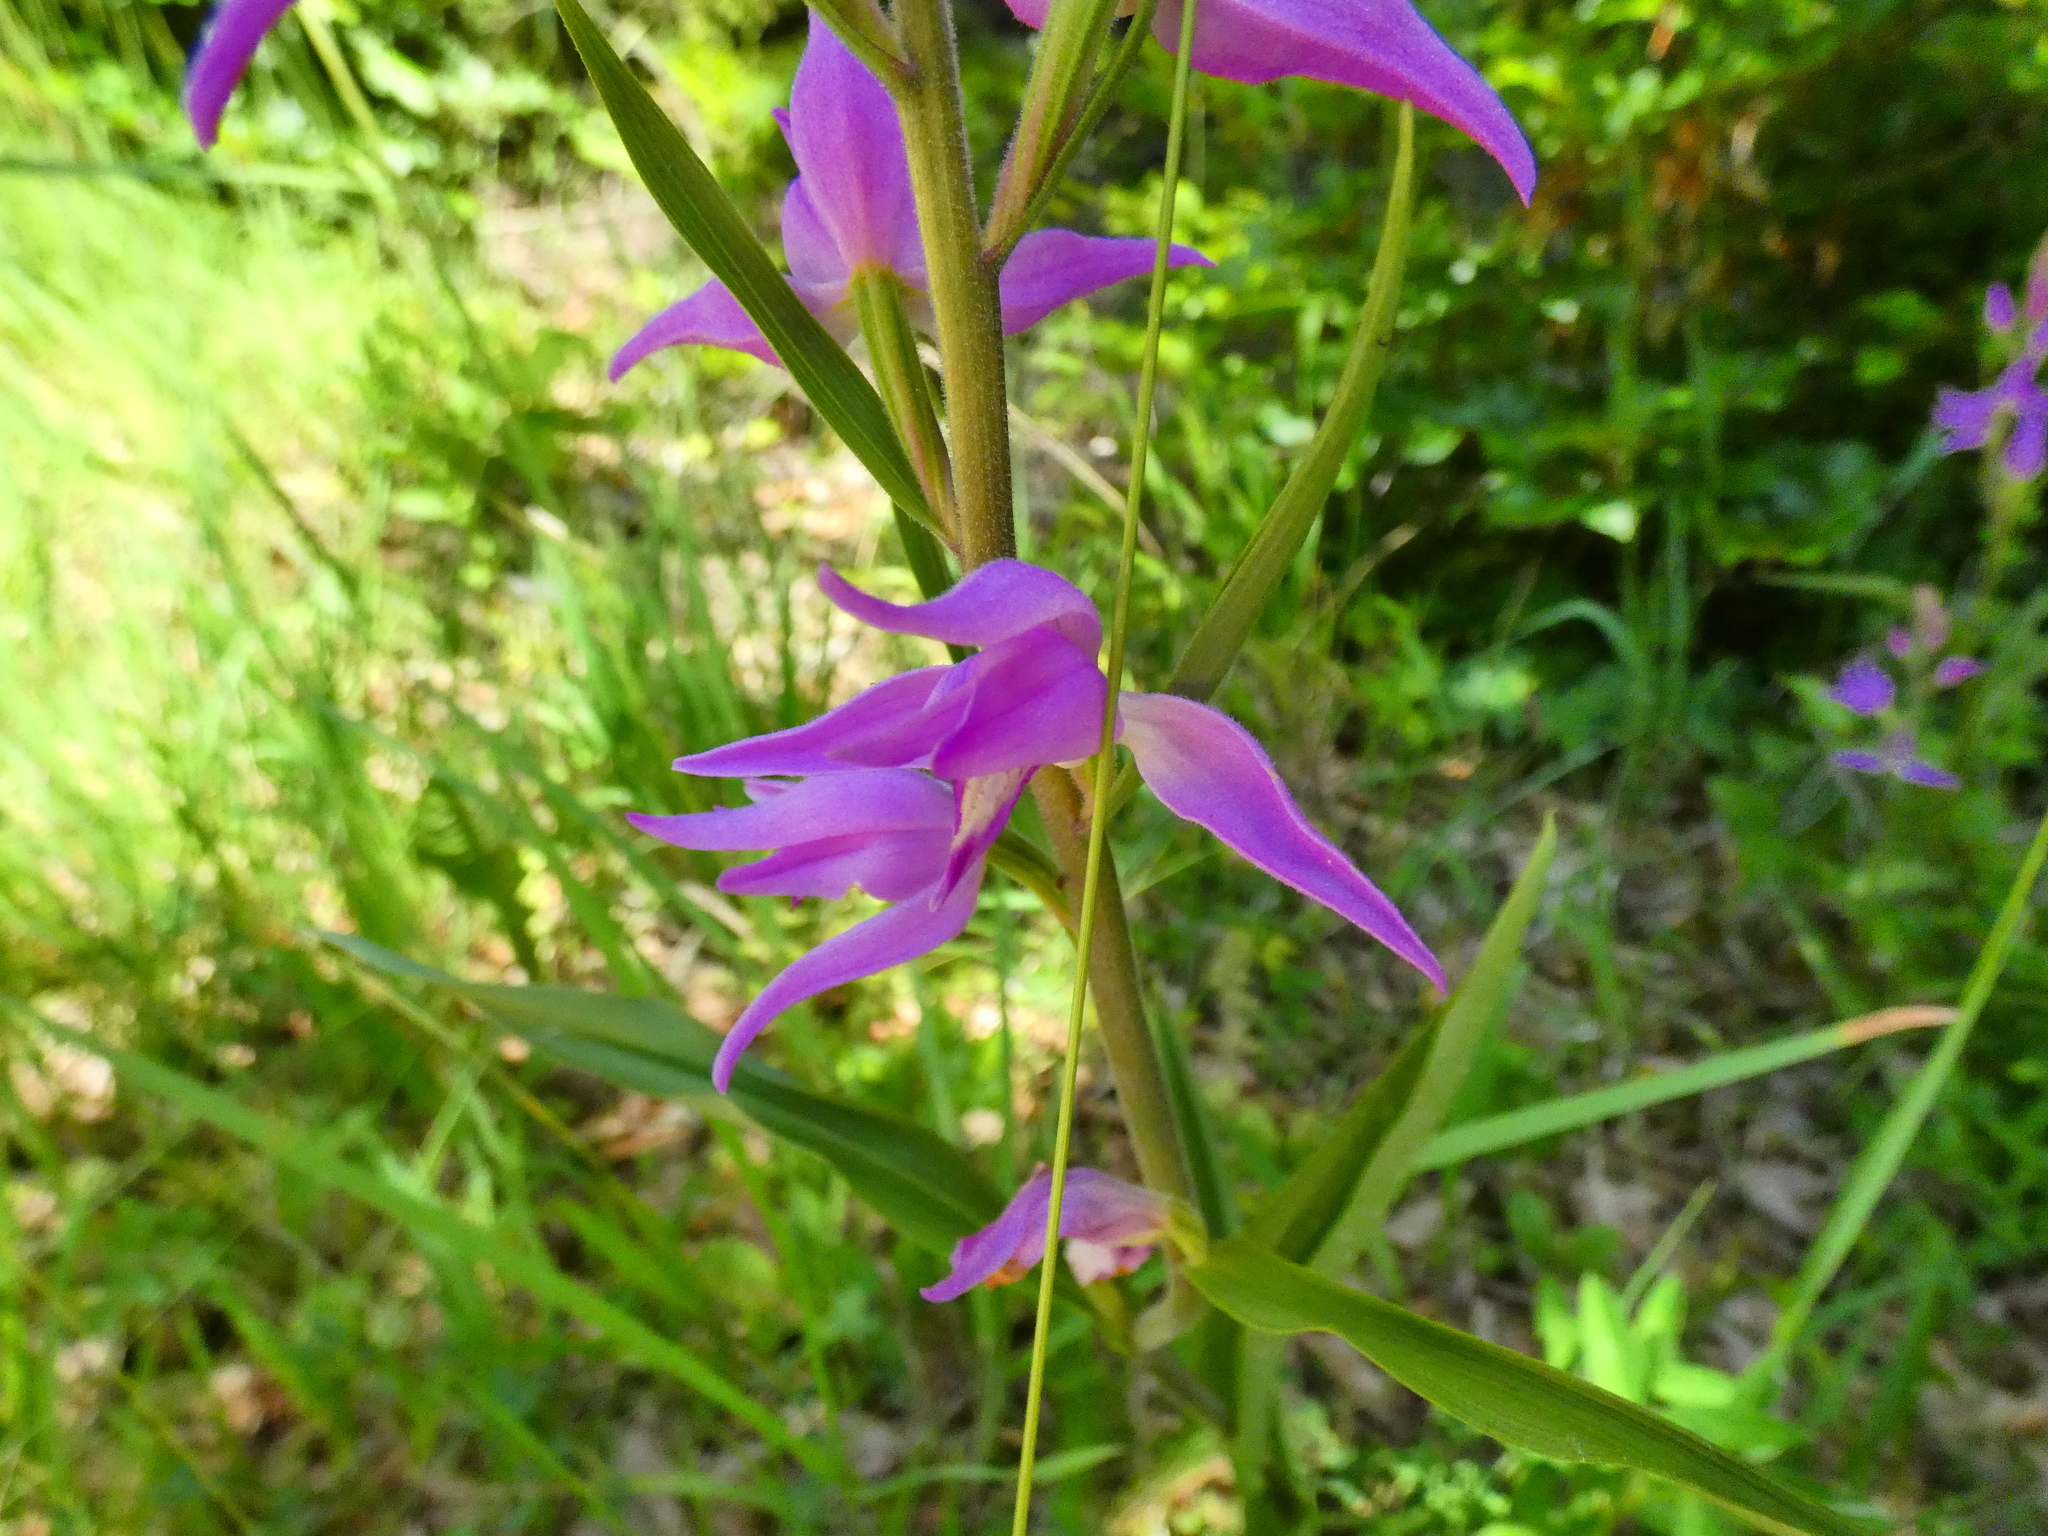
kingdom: Plantae
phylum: Tracheophyta
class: Liliopsida
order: Asparagales
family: Orchidaceae
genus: Cephalanthera
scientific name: Cephalanthera rubra
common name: Red helleborine
